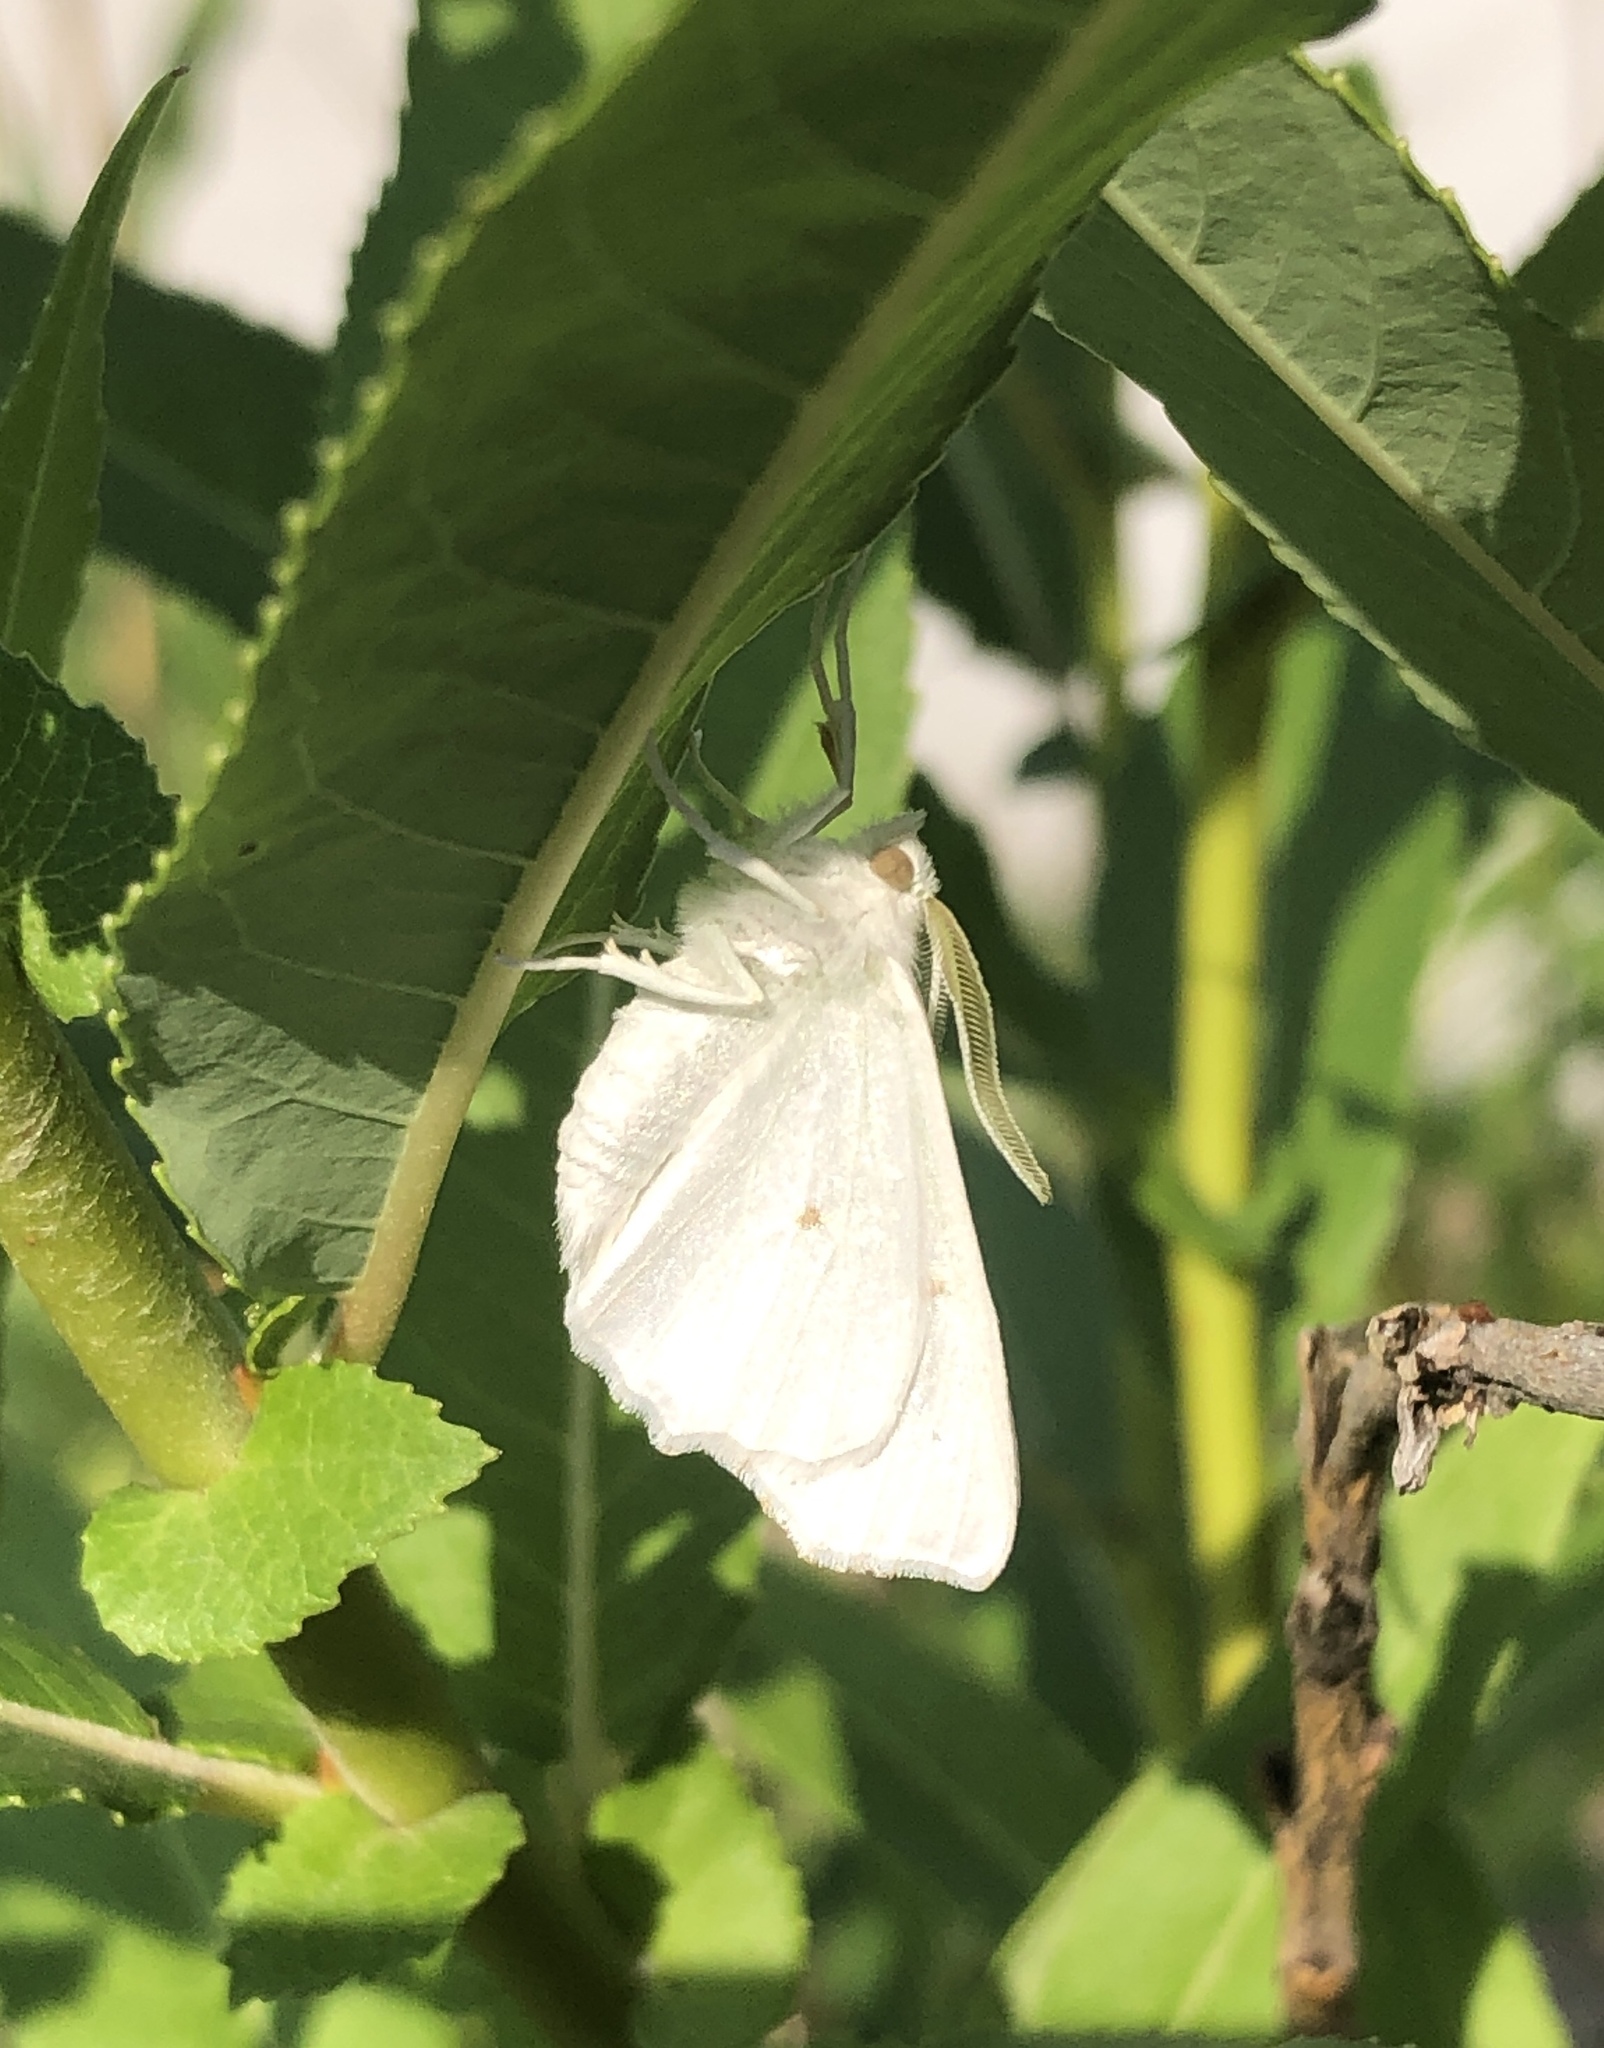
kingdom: Animalia
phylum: Arthropoda
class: Insecta
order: Lepidoptera
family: Geometridae
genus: Ennomos
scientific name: Ennomos subsignaria
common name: Elm spanworm
